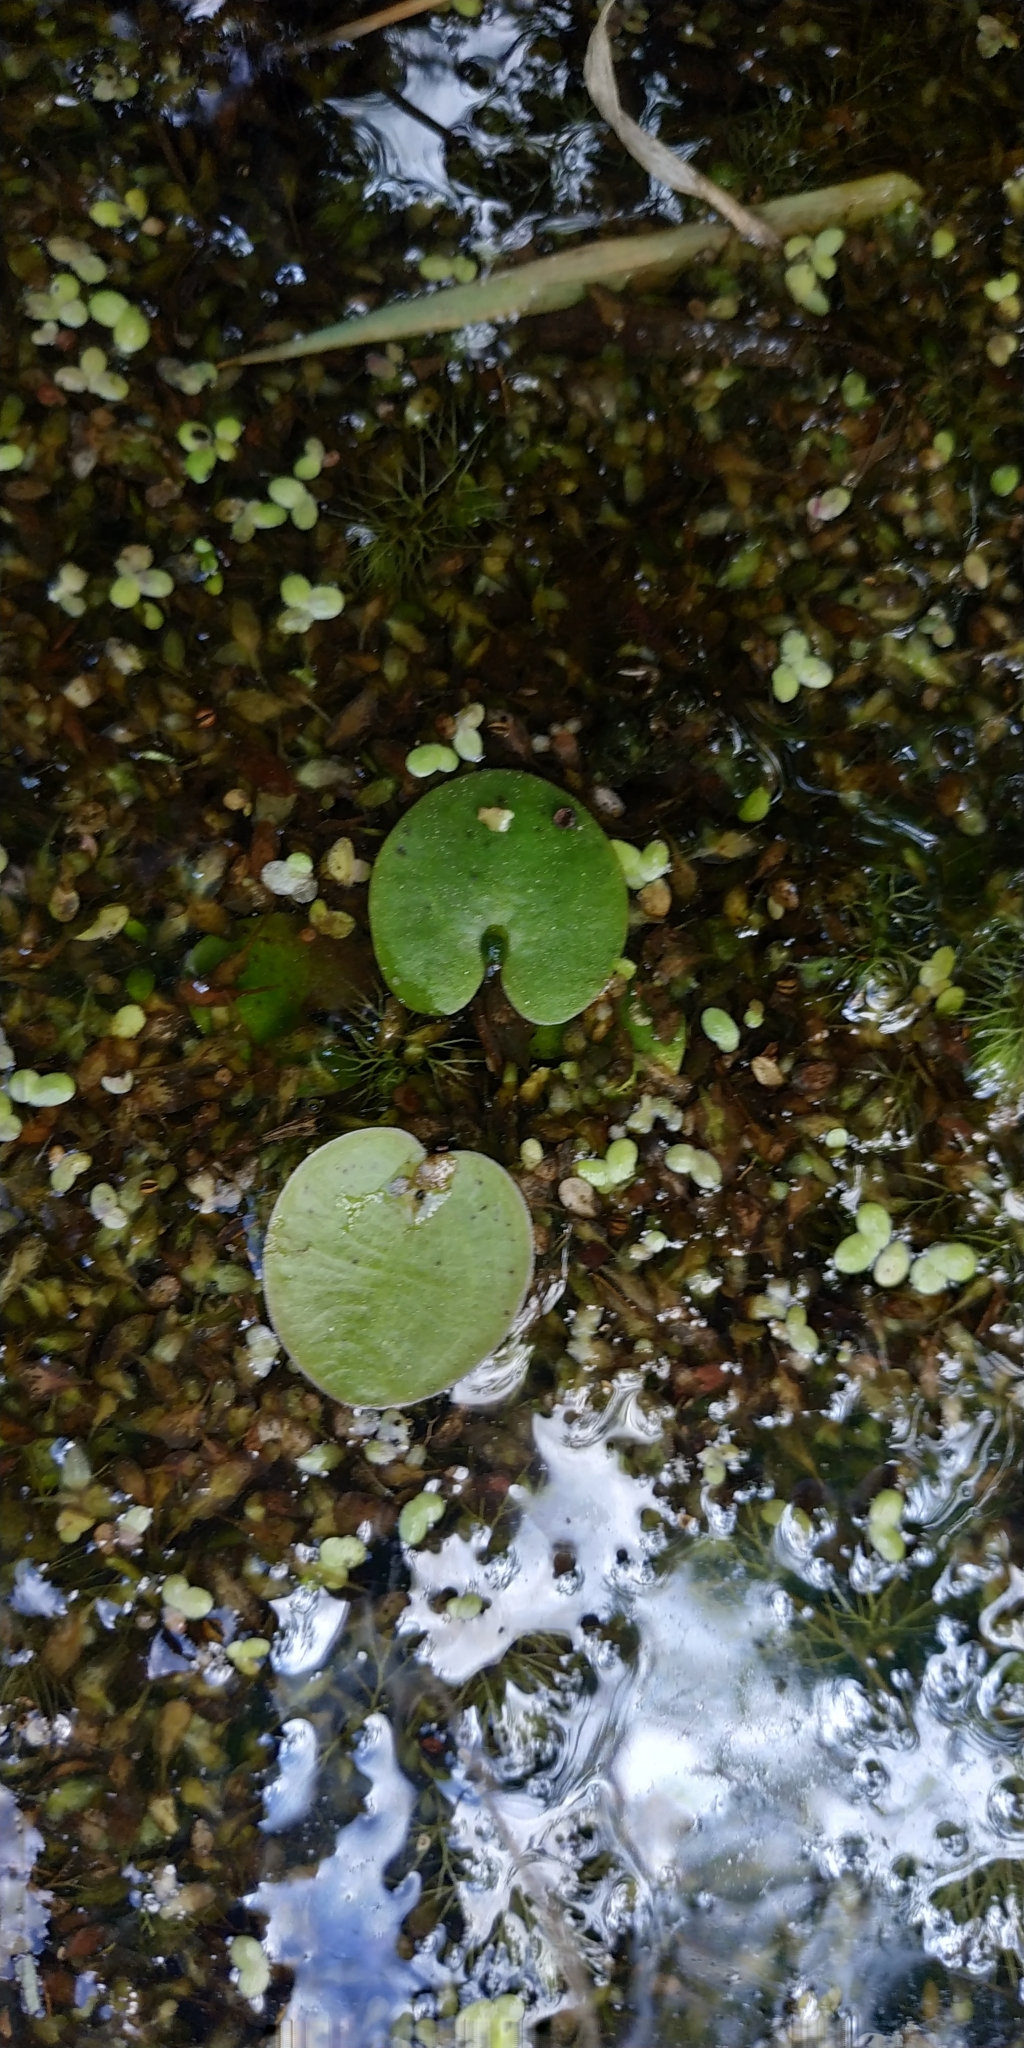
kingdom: Plantae
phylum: Tracheophyta
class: Liliopsida
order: Alismatales
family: Hydrocharitaceae
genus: Hydrocharis
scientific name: Hydrocharis morsus-ranae
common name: Frogbit
